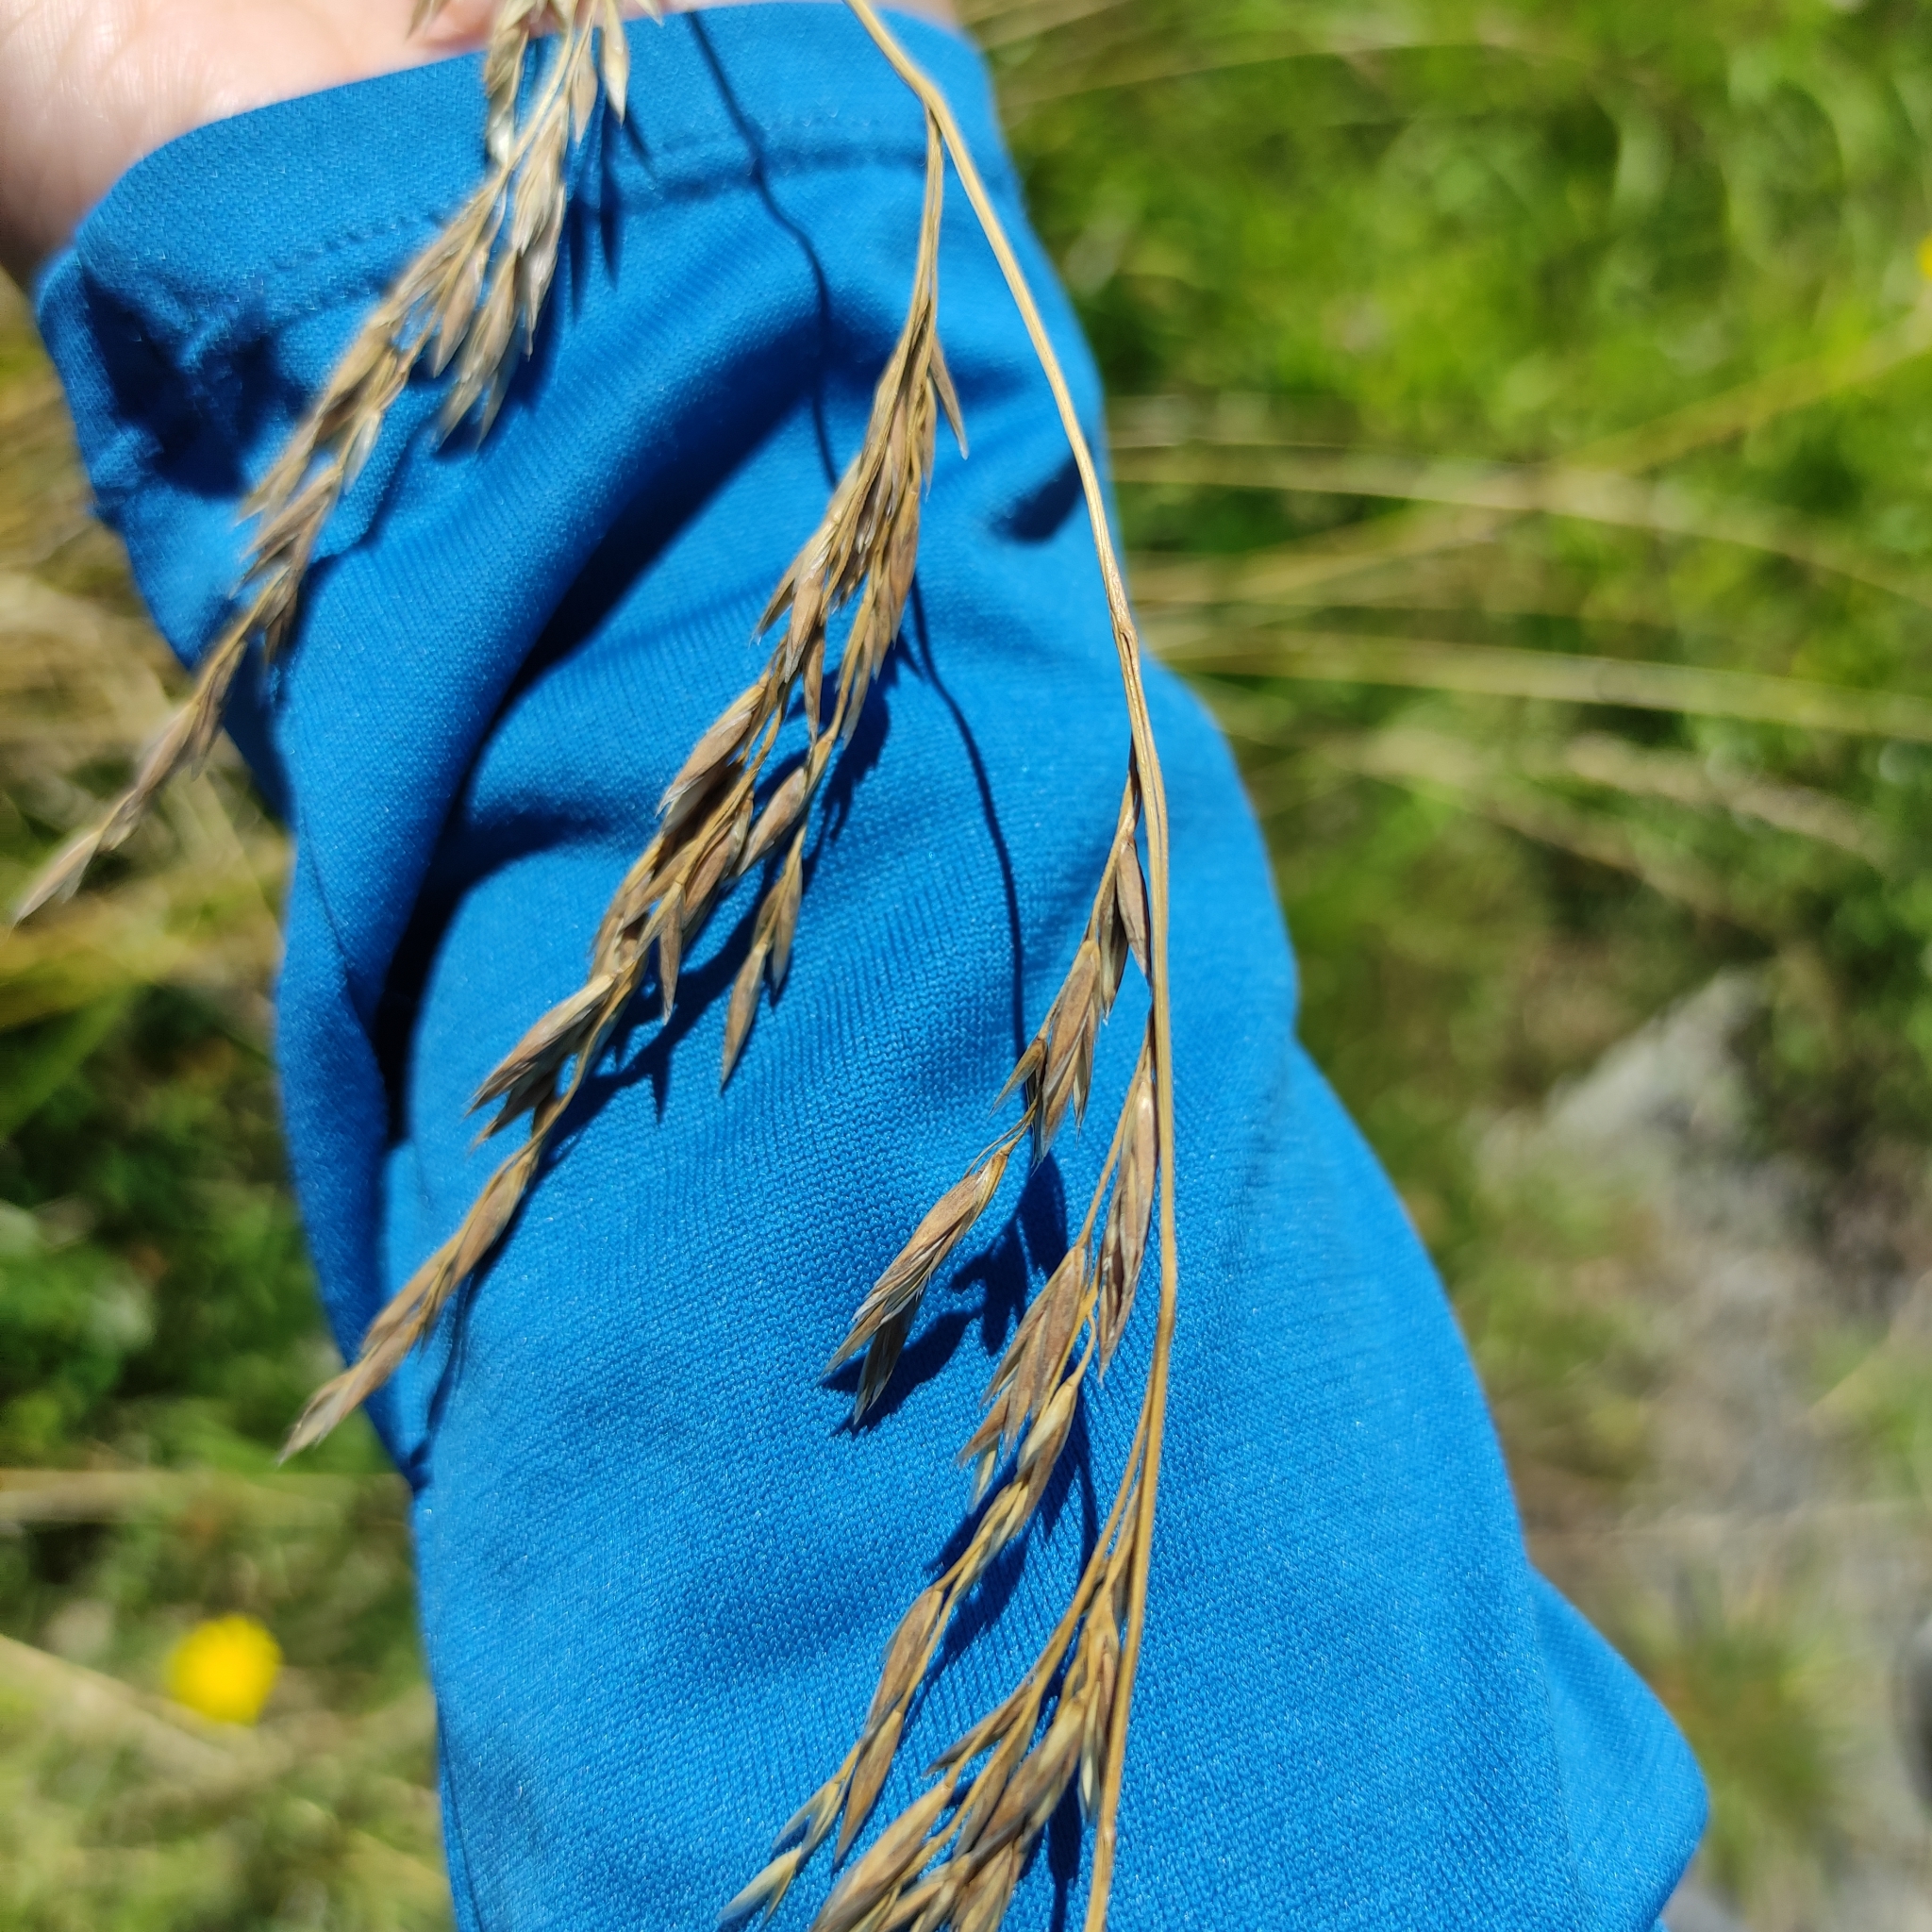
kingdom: Plantae
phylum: Tracheophyta
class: Liliopsida
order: Poales
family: Poaceae
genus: Lolium
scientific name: Lolium arundinaceum
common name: Reed fescue
